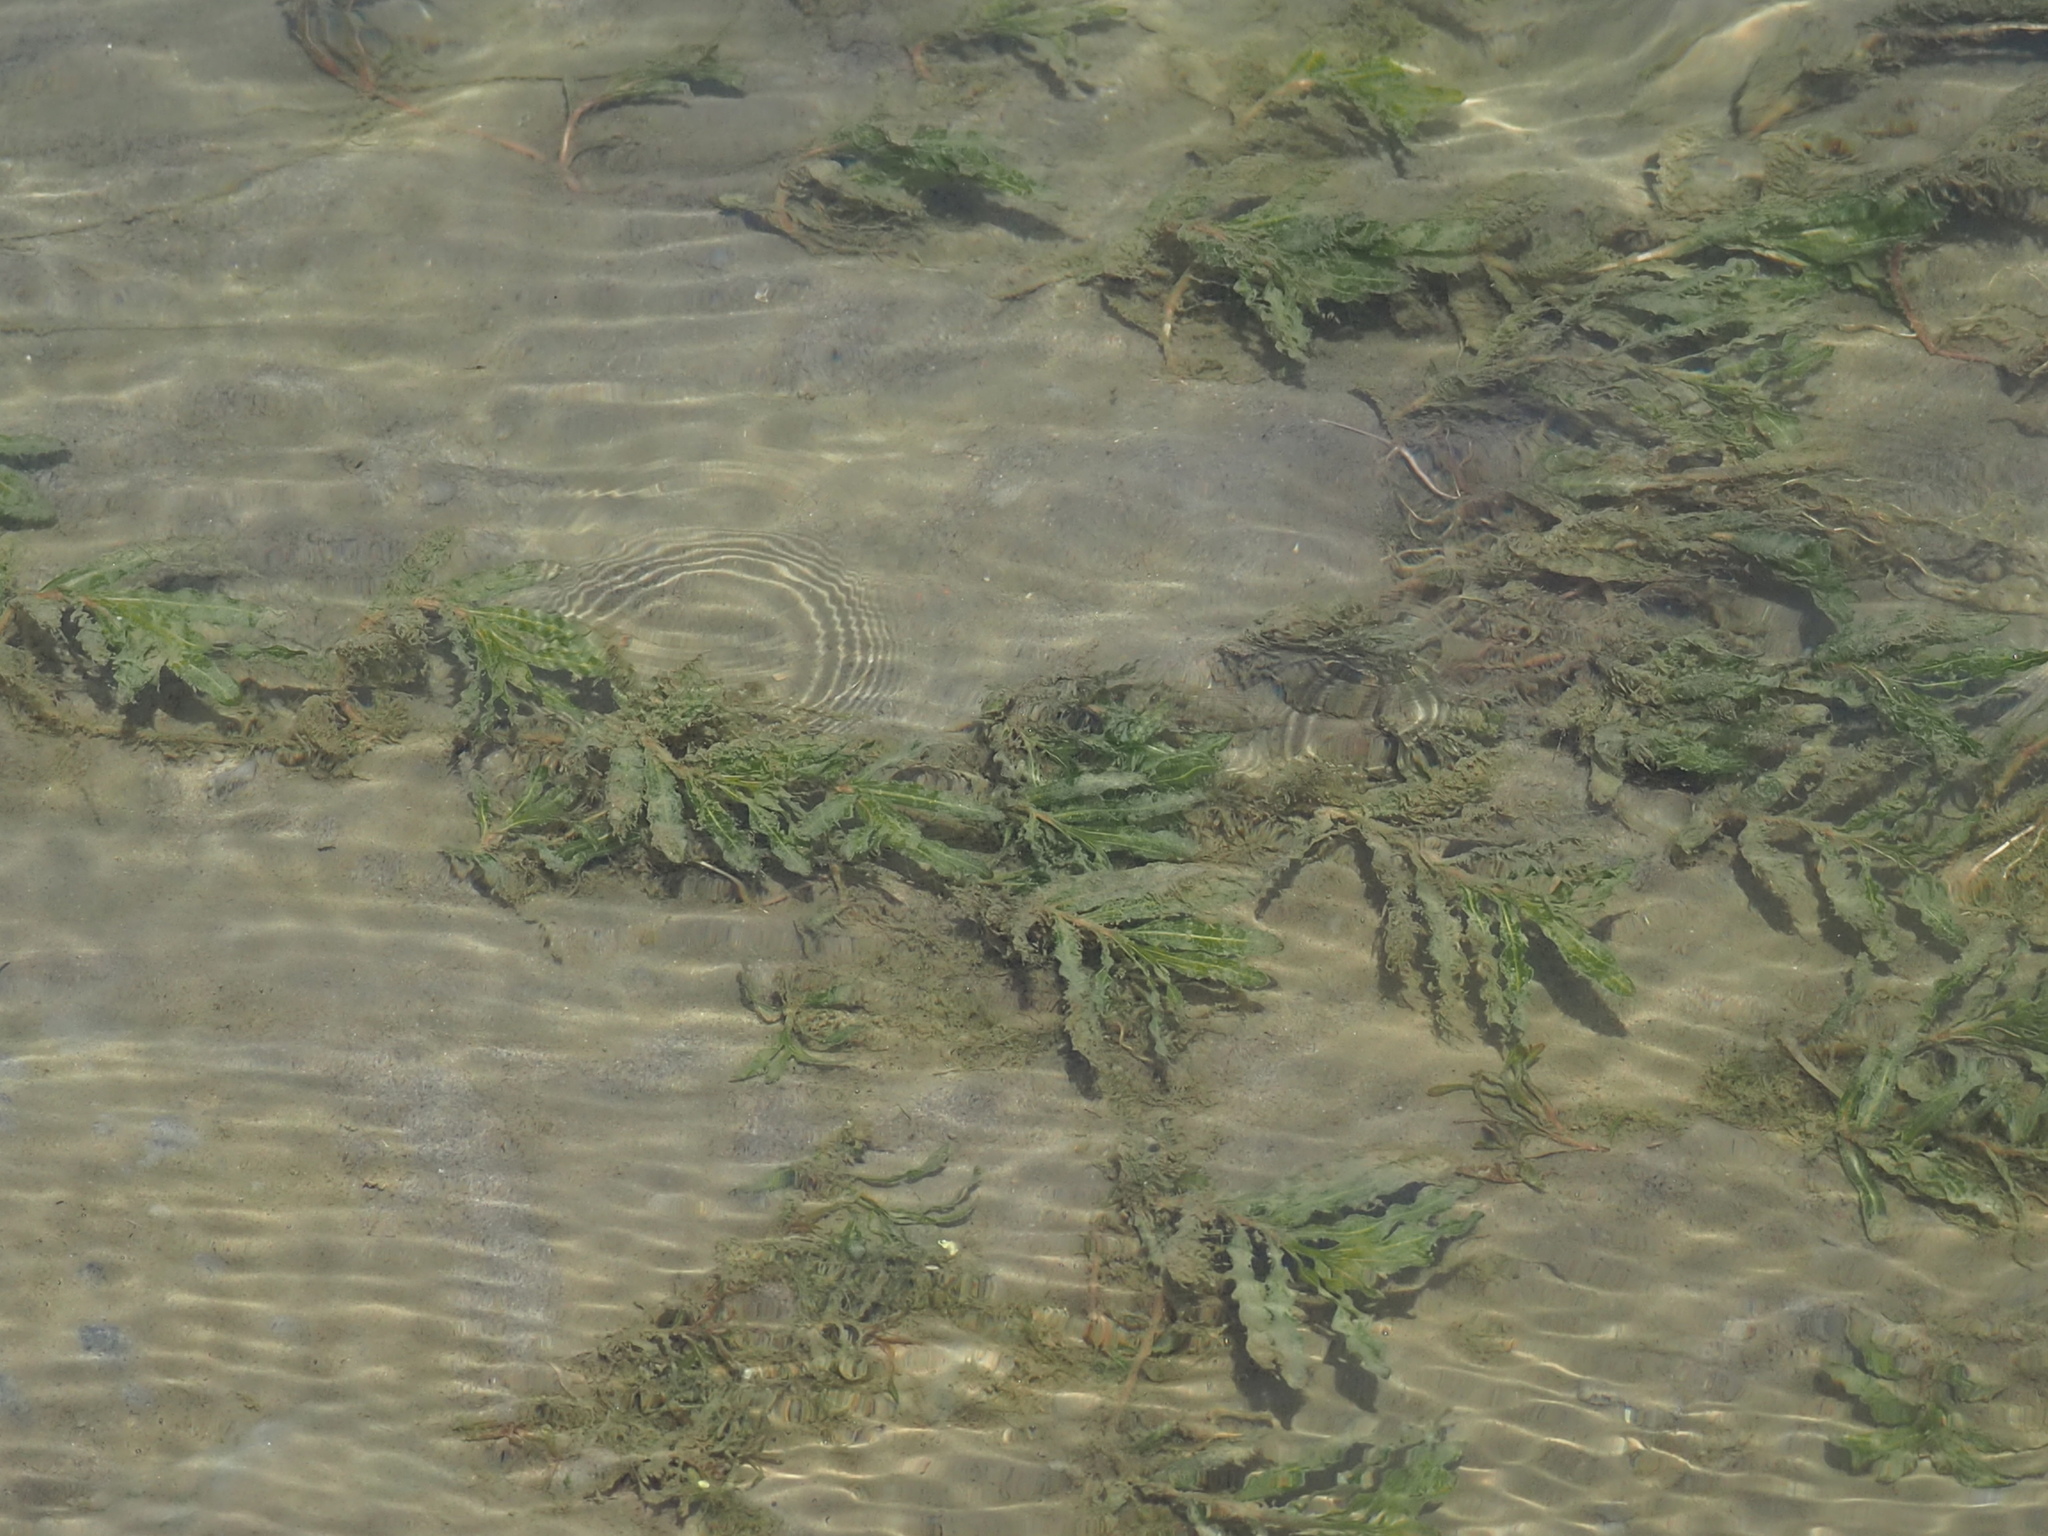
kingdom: Plantae
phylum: Tracheophyta
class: Liliopsida
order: Alismatales
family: Potamogetonaceae
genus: Potamogeton
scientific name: Potamogeton crispus
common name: Curled pondweed
